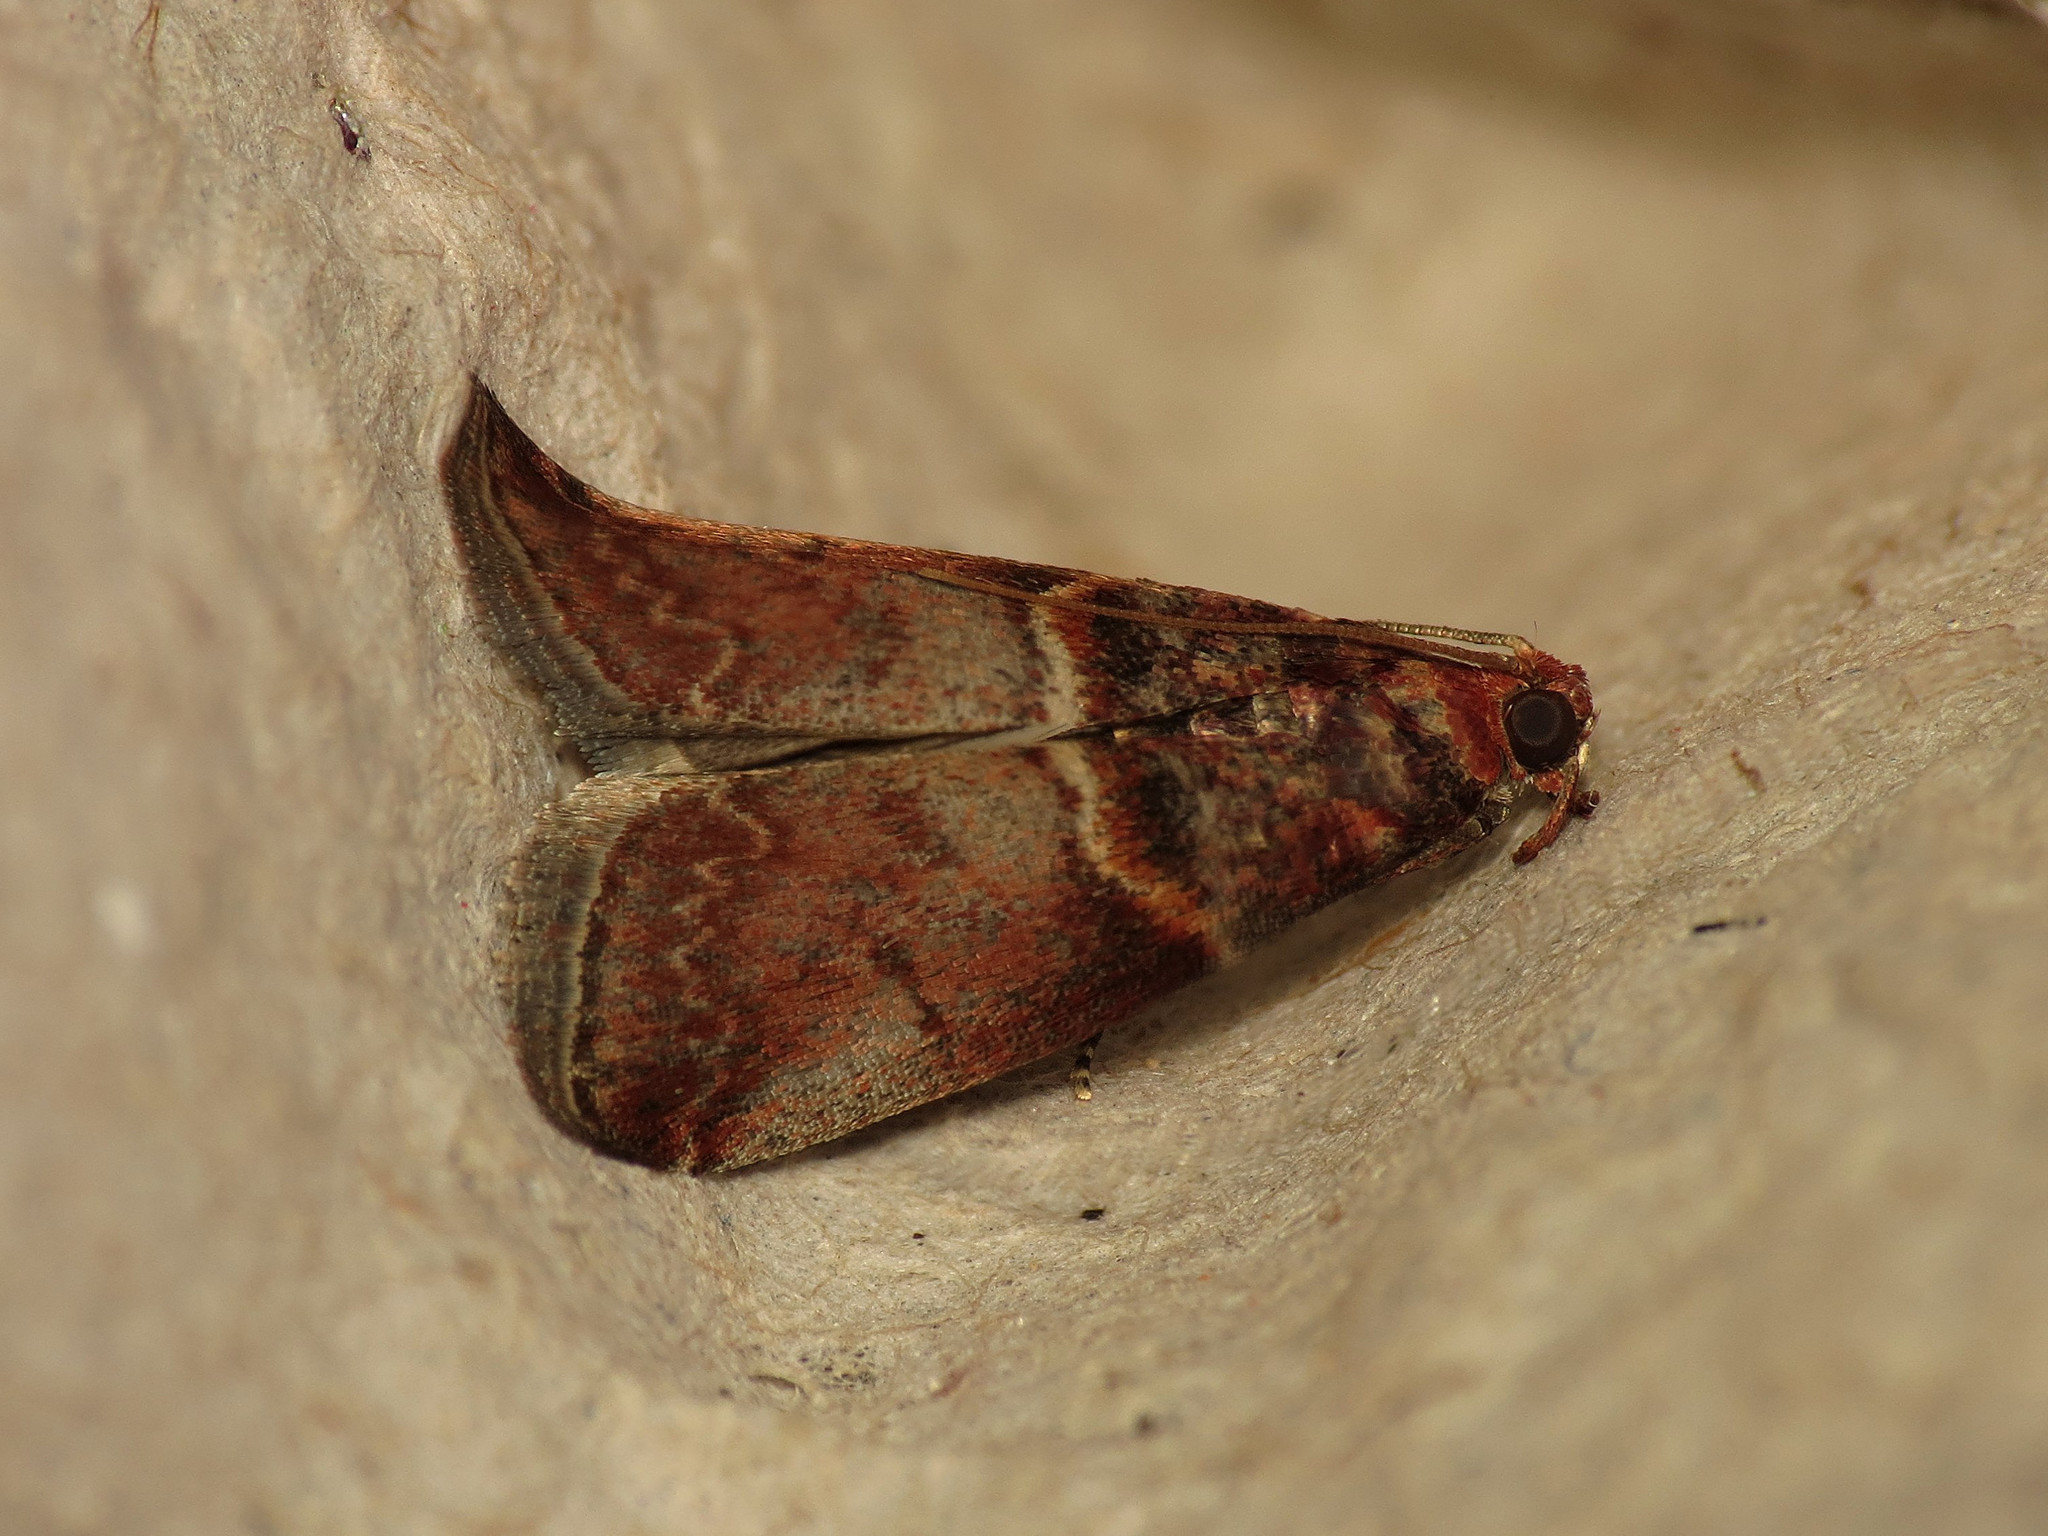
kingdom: Animalia
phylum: Arthropoda
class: Insecta
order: Lepidoptera
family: Pyralidae
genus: Acrobasis
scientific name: Acrobasis advenella
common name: Grey knot-horn
